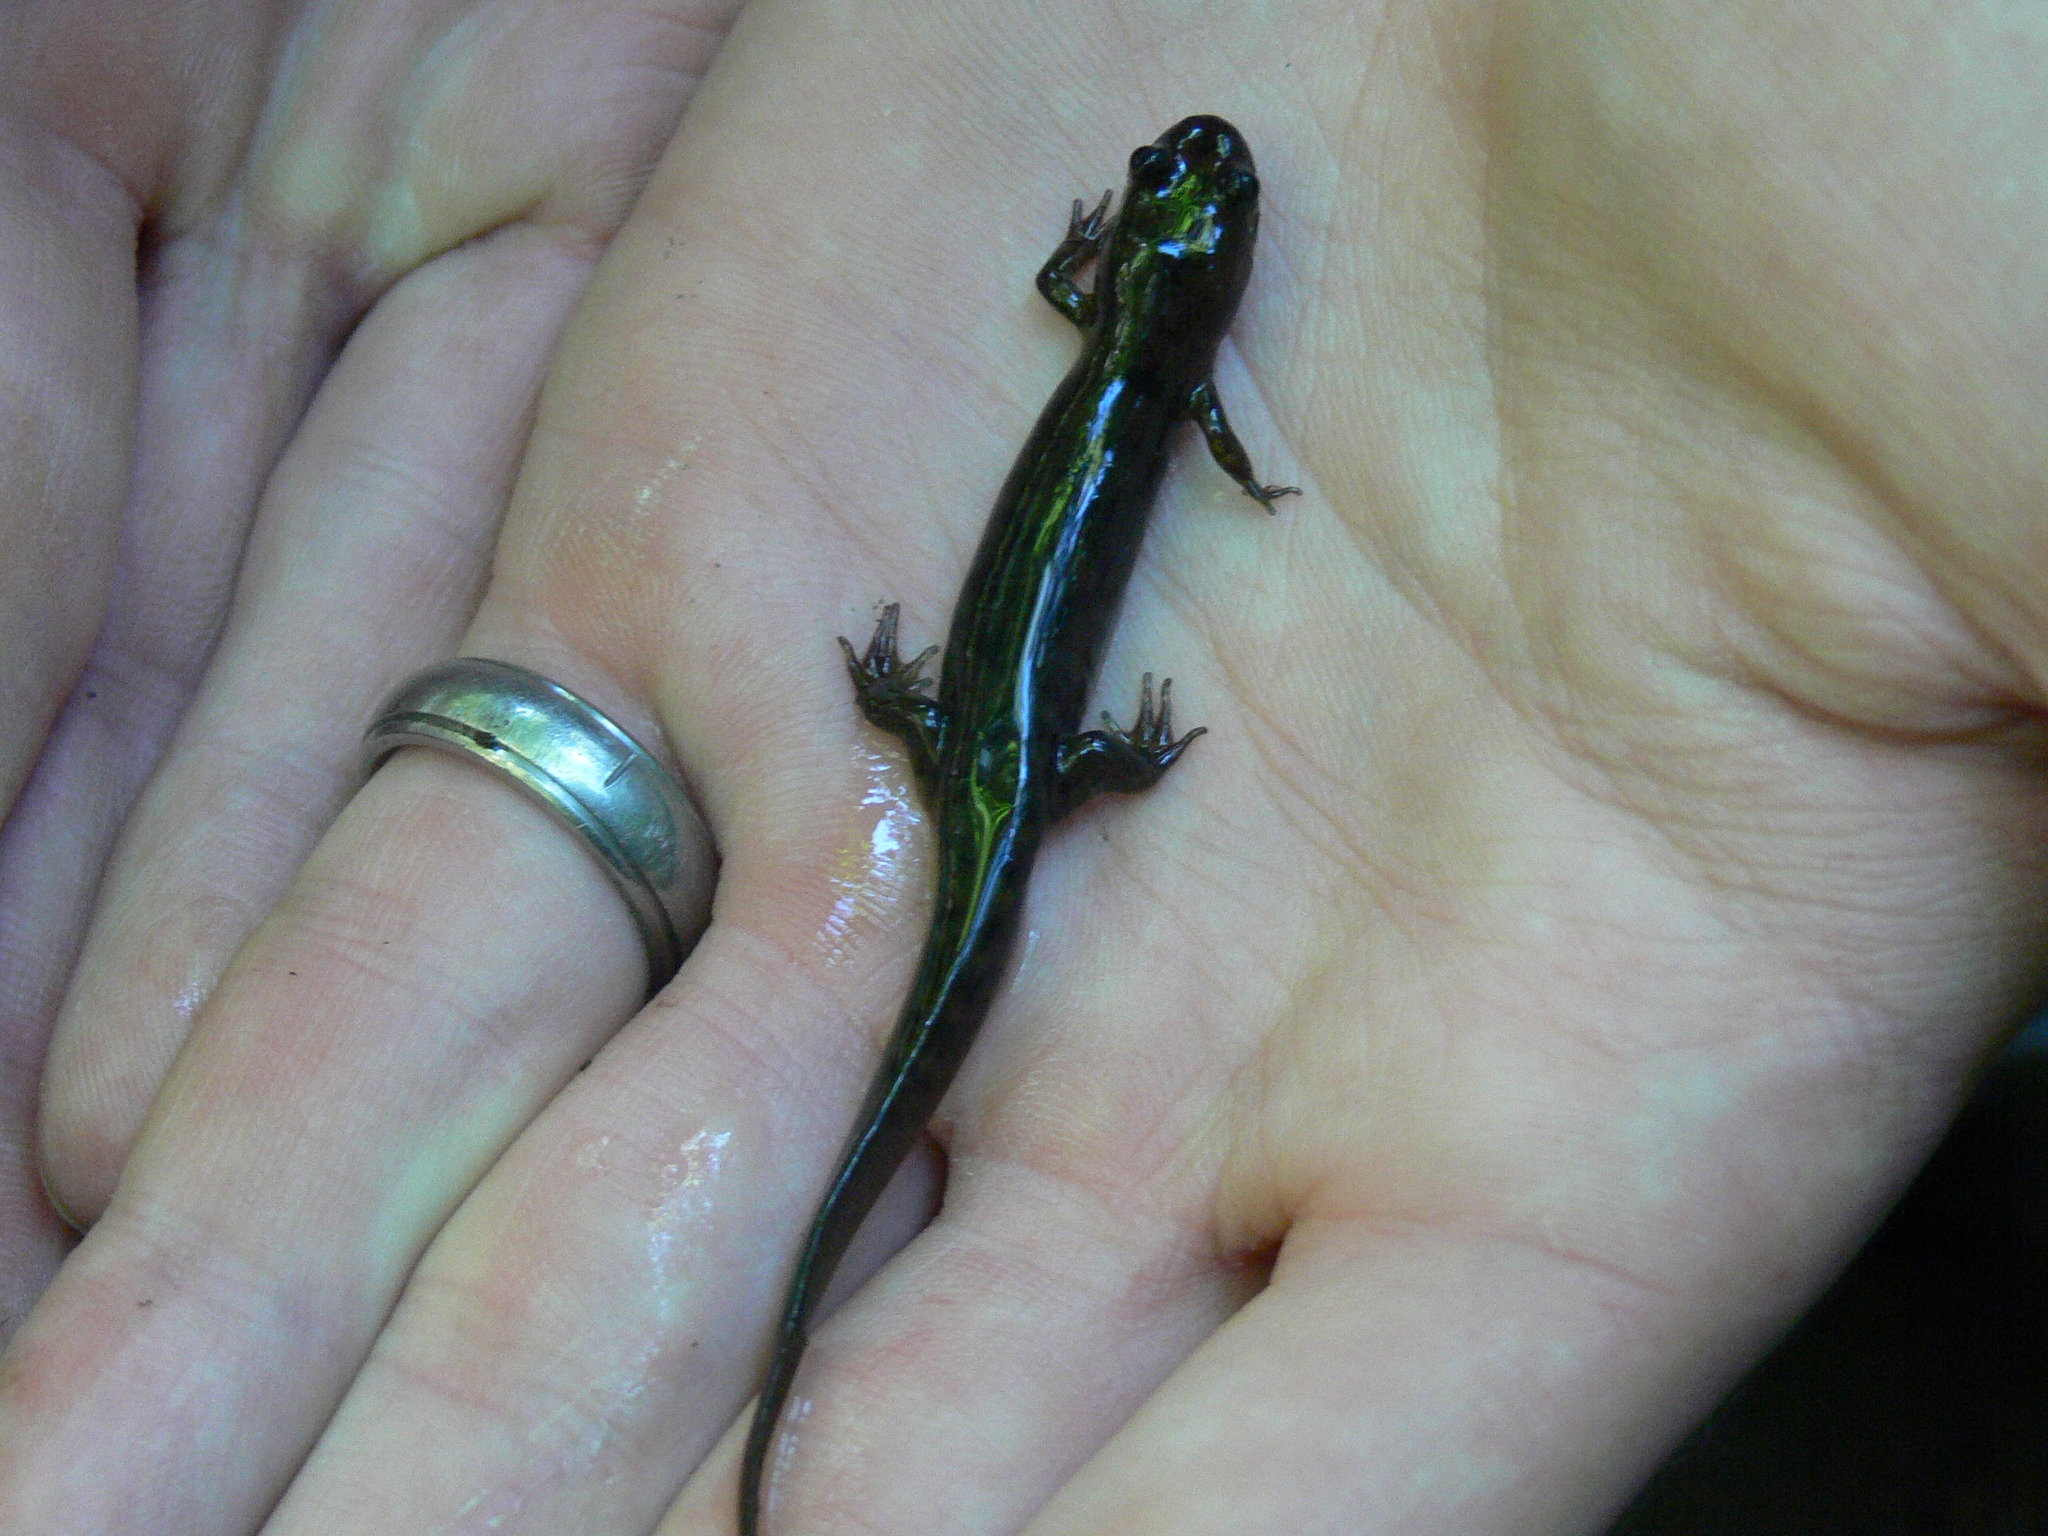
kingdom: Animalia
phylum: Chordata
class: Amphibia
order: Caudata
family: Plethodontidae
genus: Desmognathus
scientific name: Desmognathus
